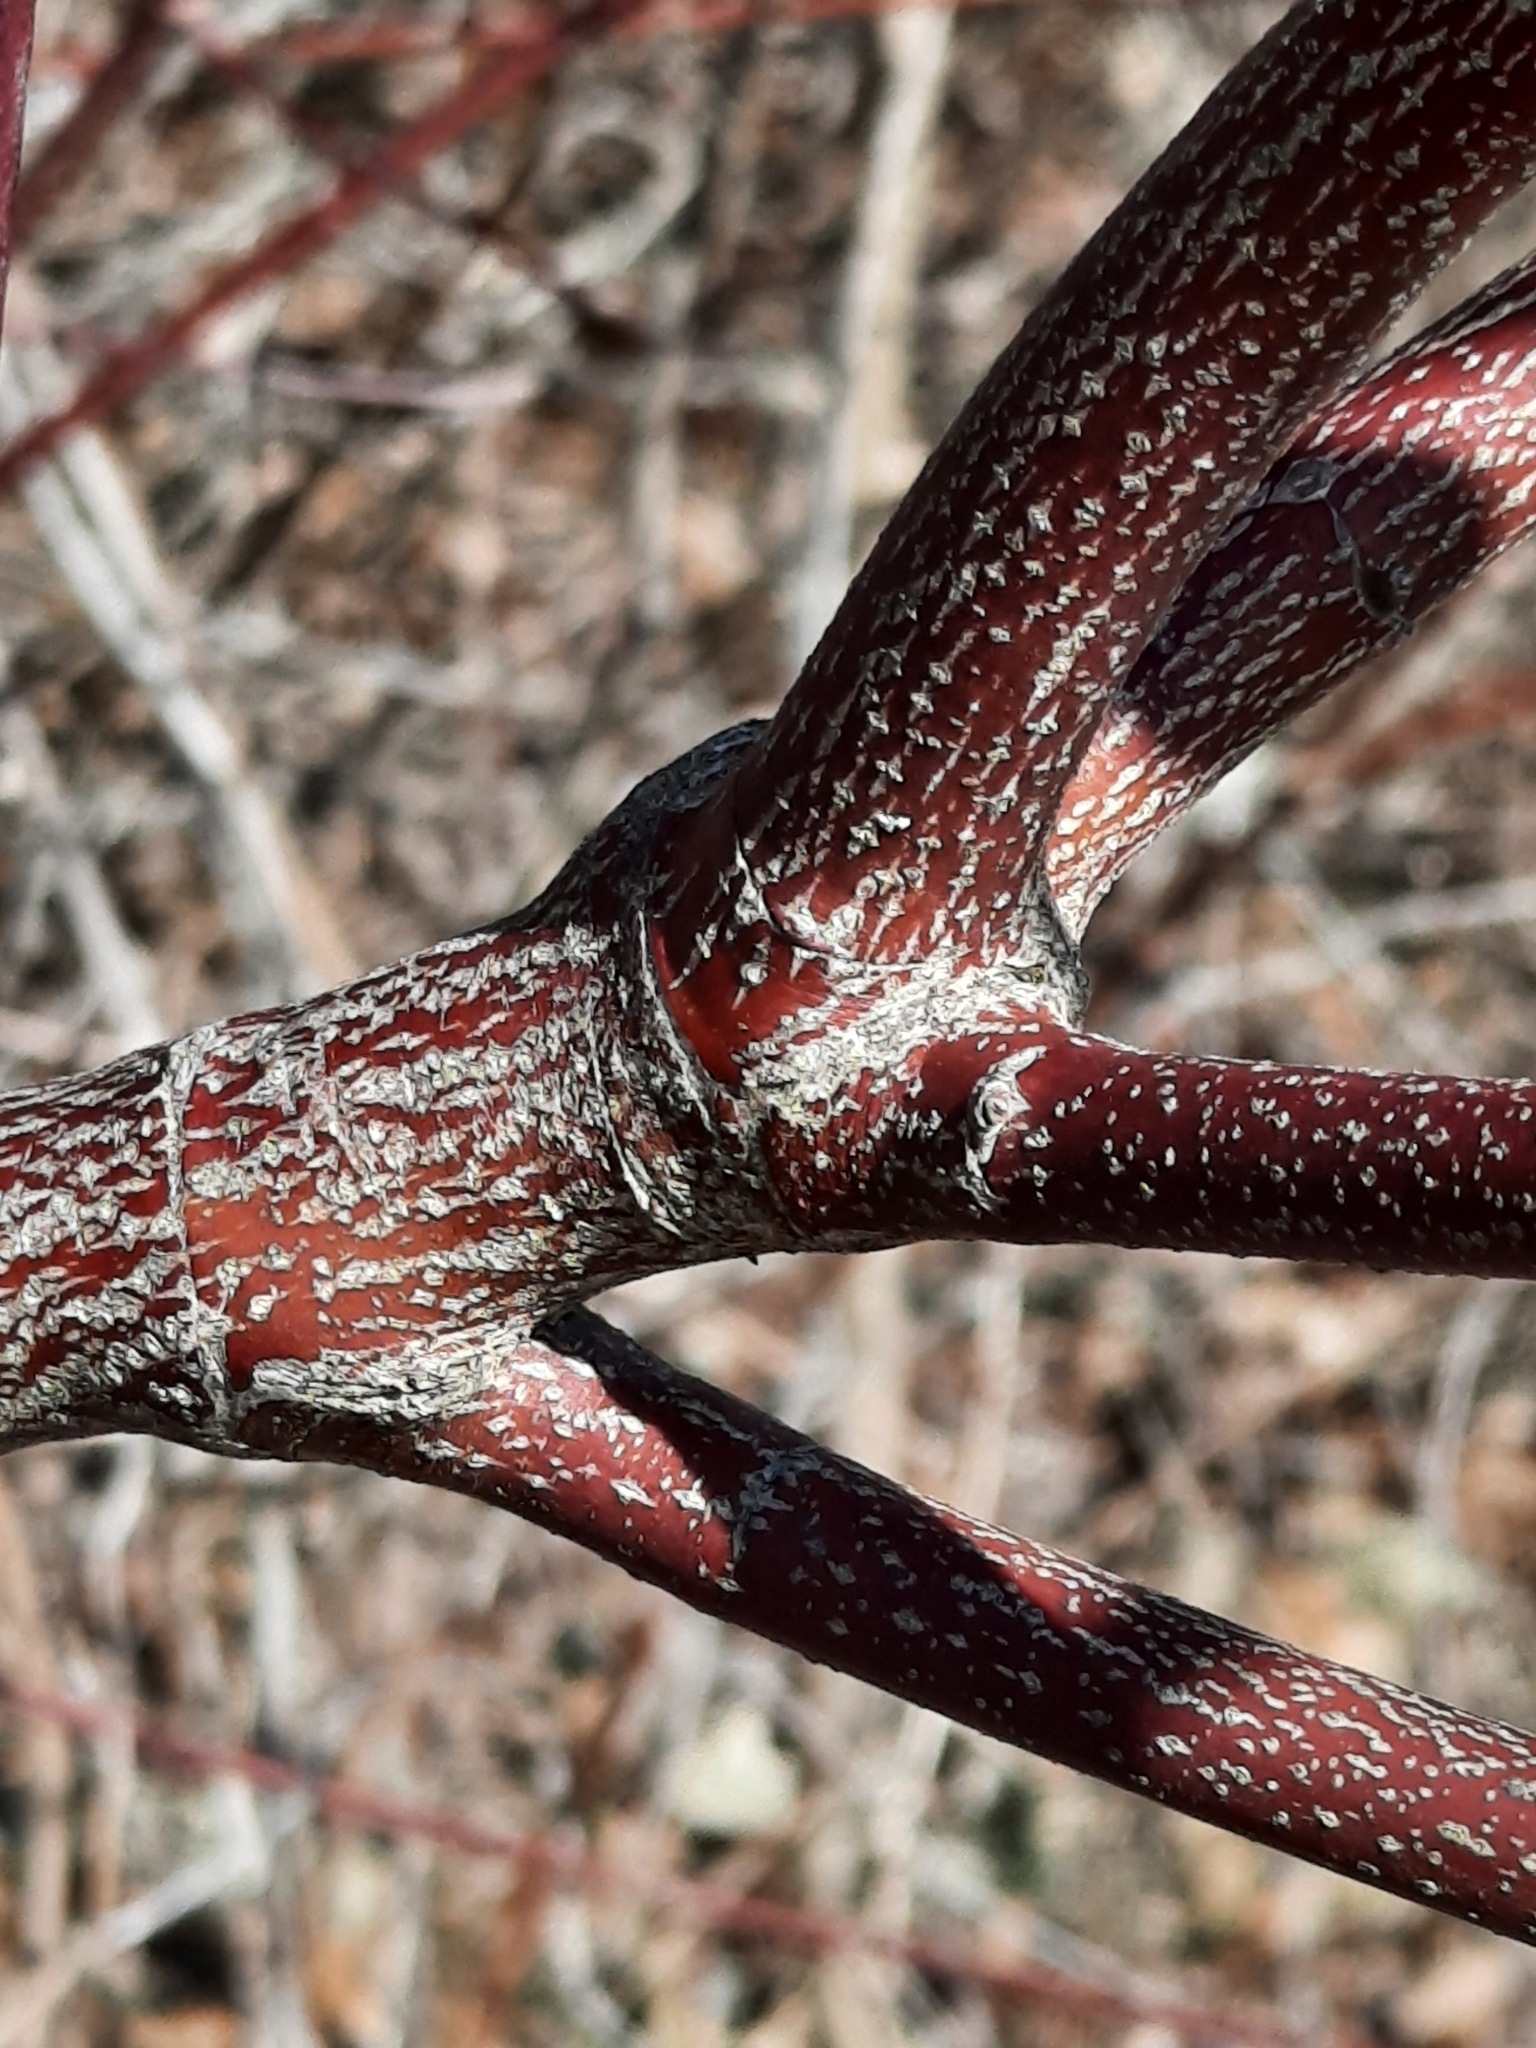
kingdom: Plantae
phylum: Tracheophyta
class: Magnoliopsida
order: Cornales
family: Cornaceae
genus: Cornus
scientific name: Cornus amomum
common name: Silky dogwood
